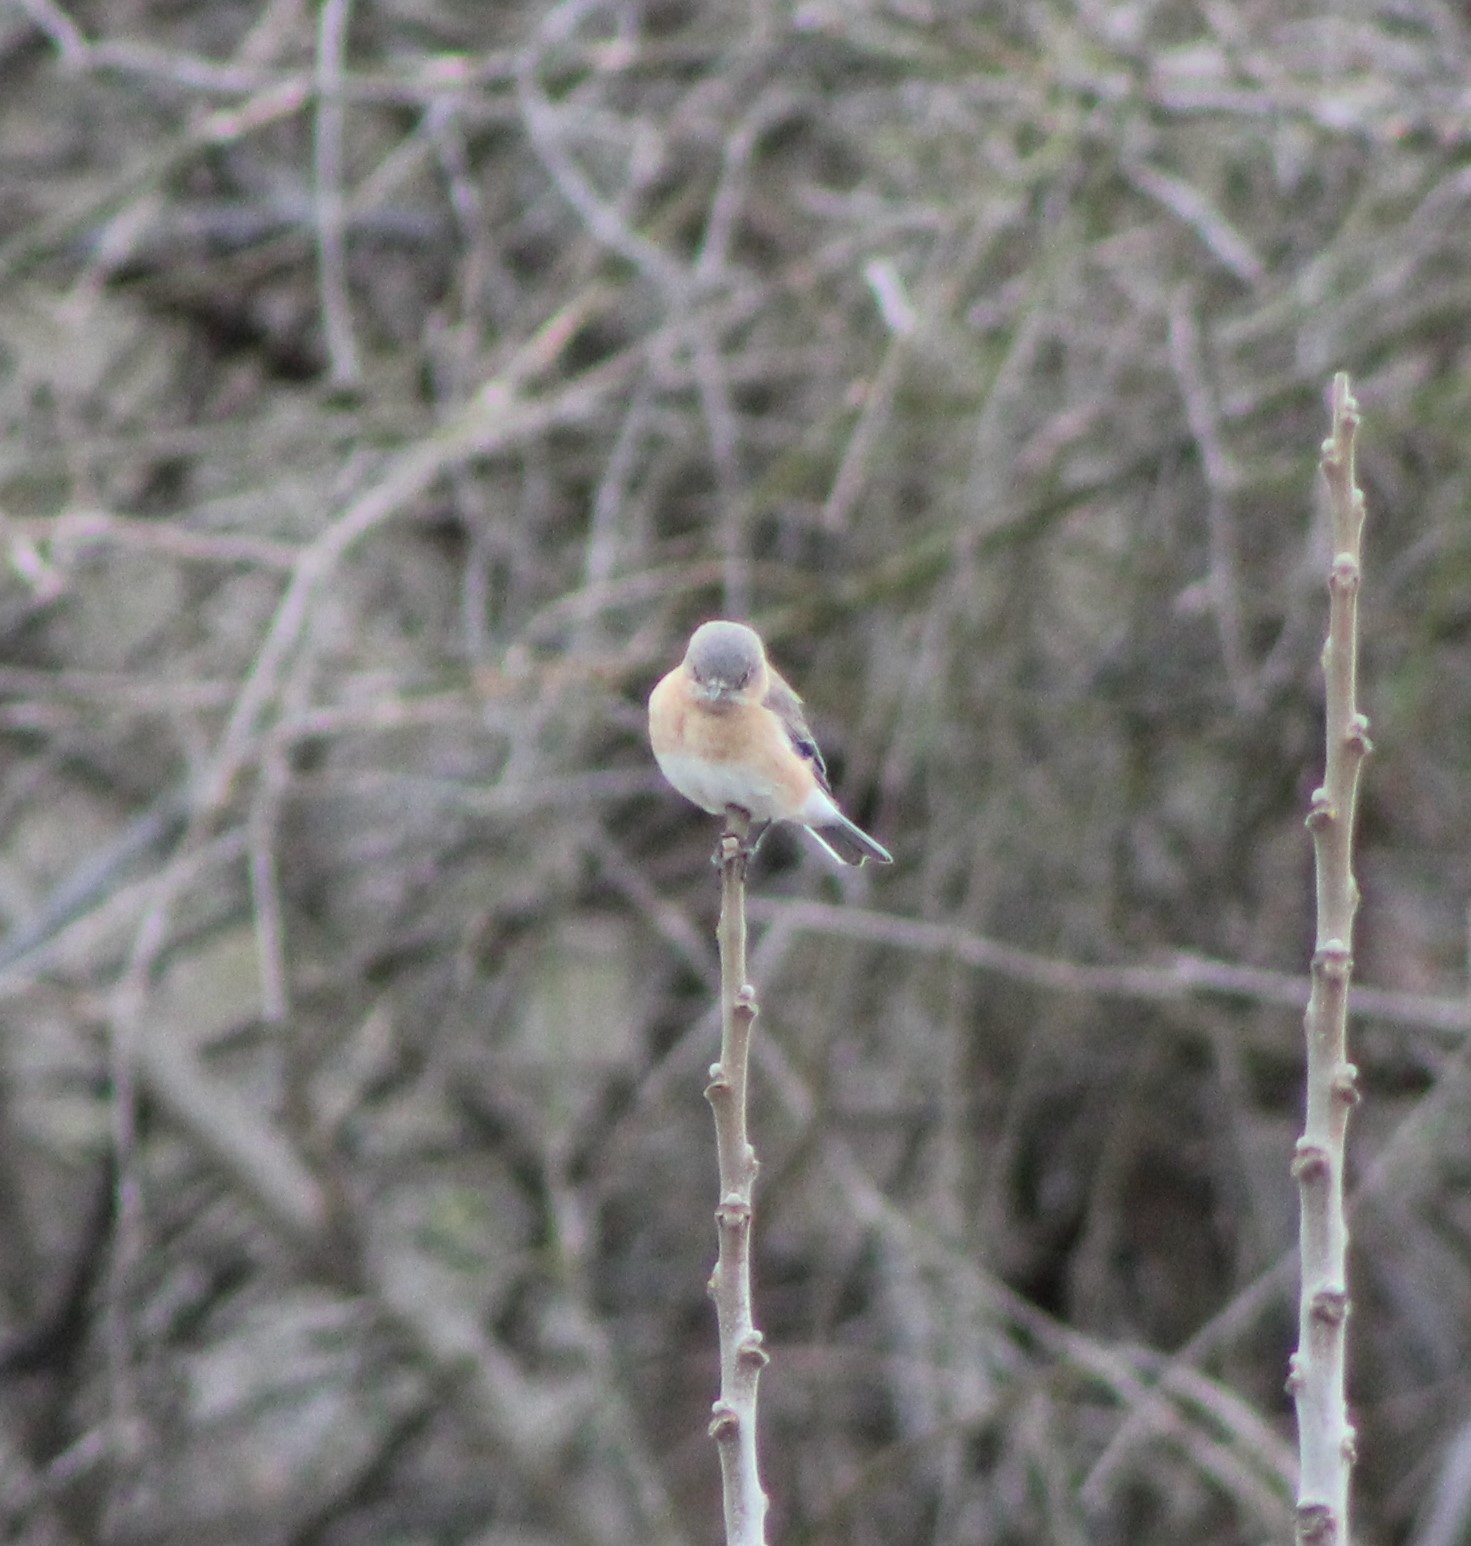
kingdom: Animalia
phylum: Chordata
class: Aves
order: Passeriformes
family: Turdidae
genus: Sialia
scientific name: Sialia sialis
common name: Eastern bluebird
